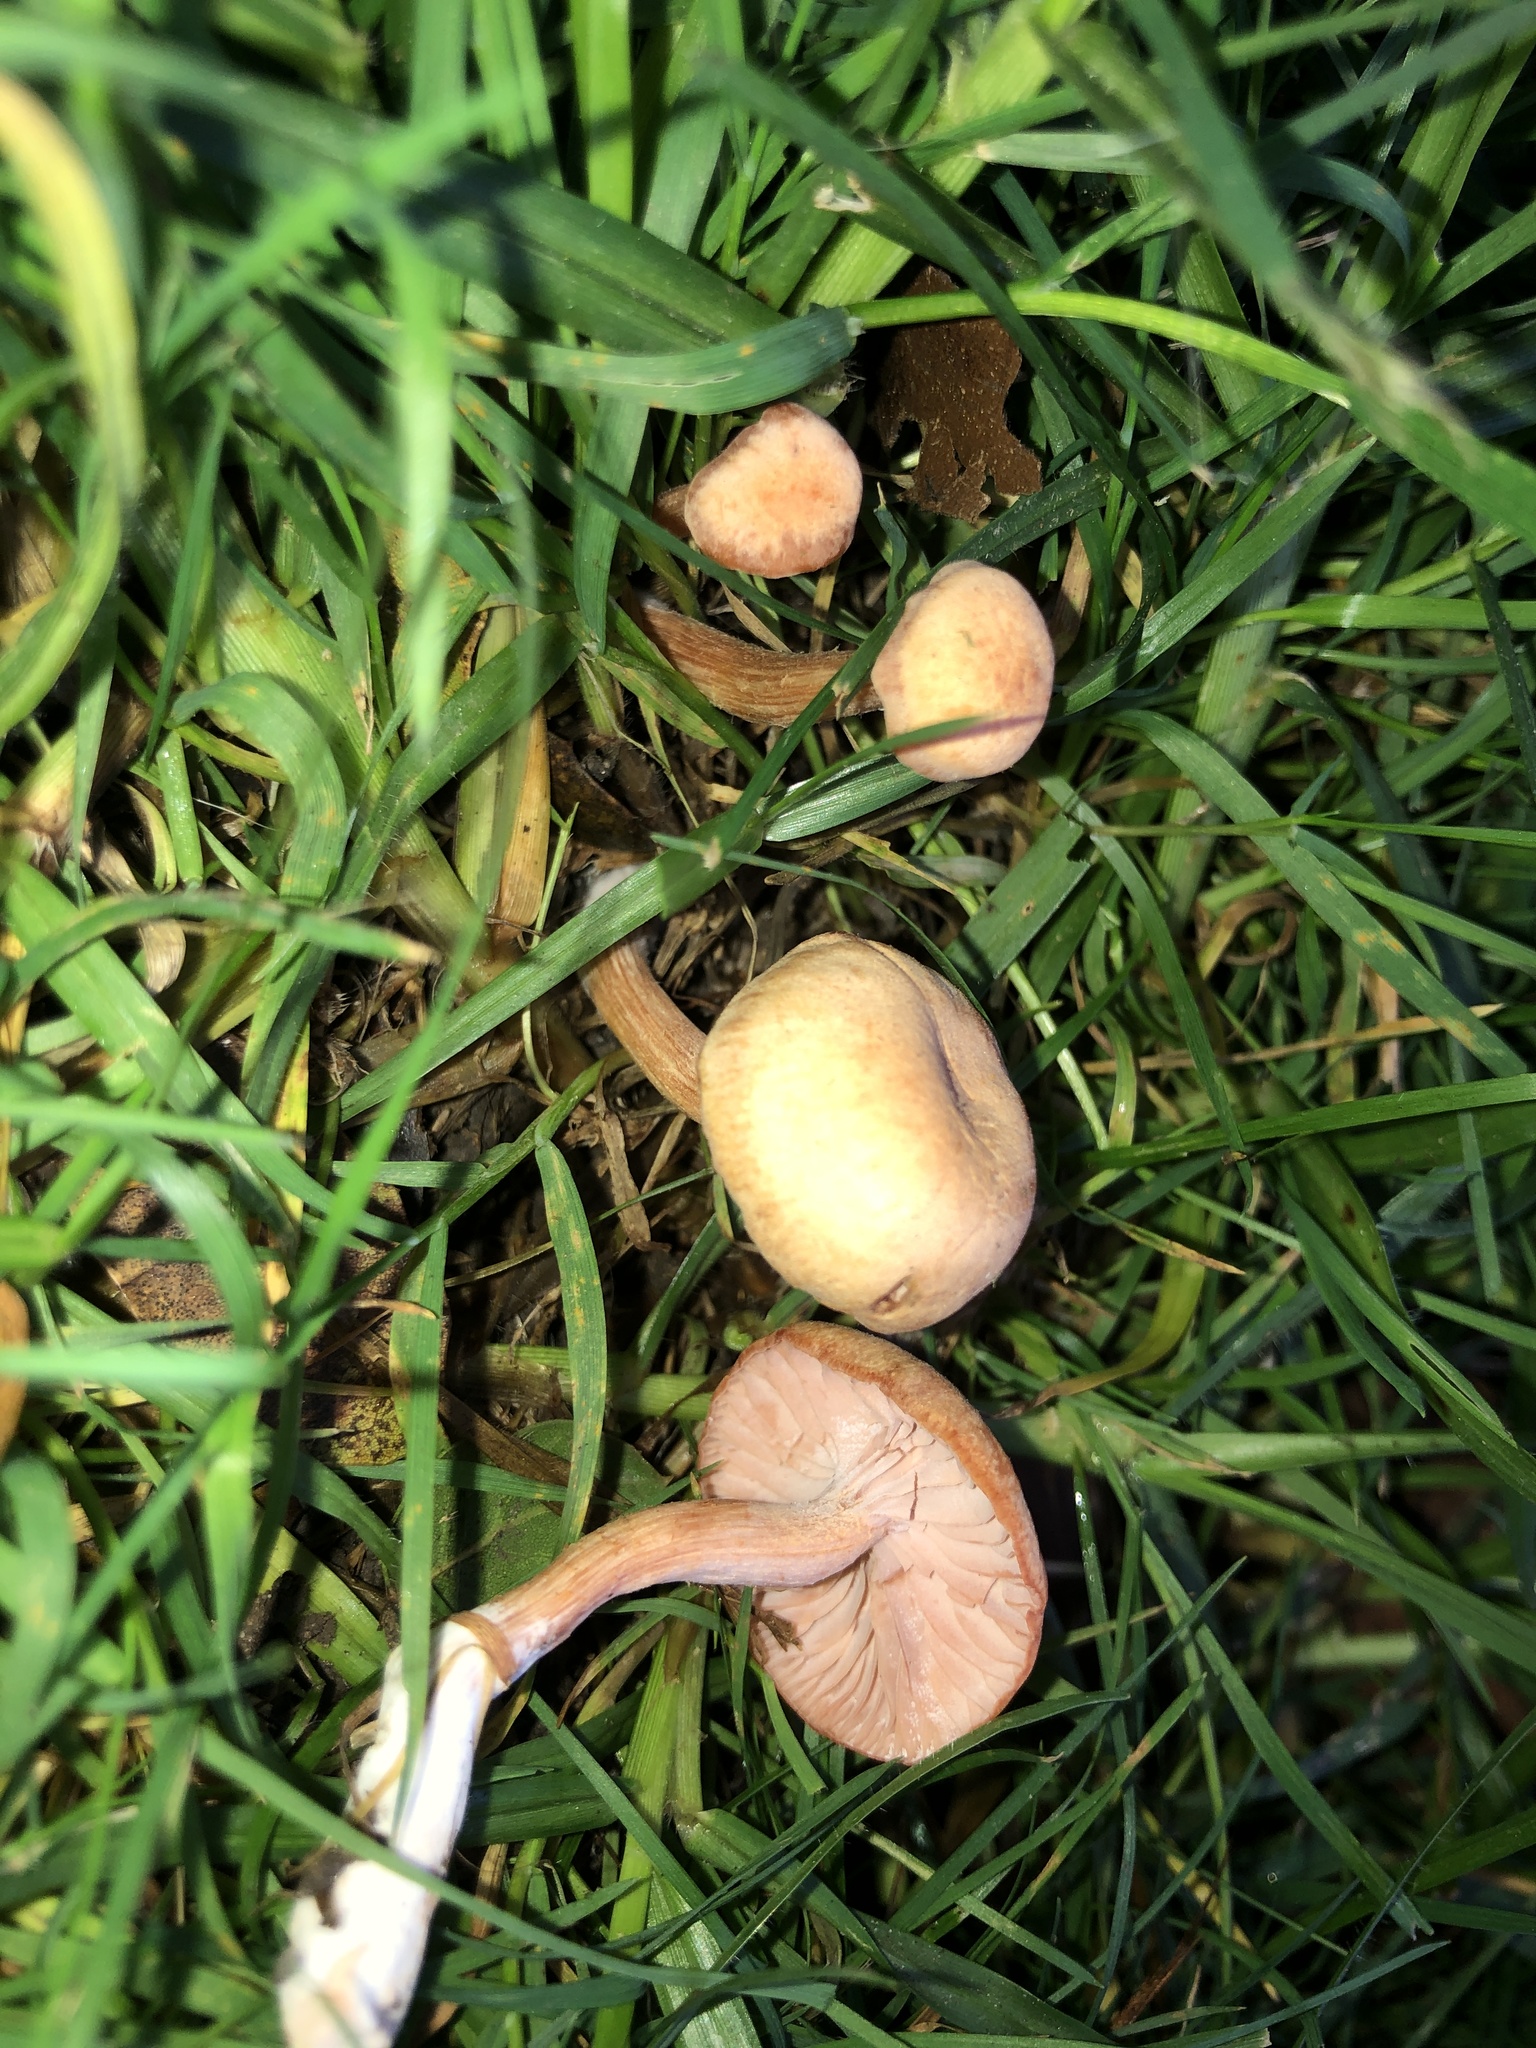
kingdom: Fungi
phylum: Basidiomycota
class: Agaricomycetes
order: Agaricales
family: Hydnangiaceae
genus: Laccaria
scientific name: Laccaria laccata
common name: Deceiver
